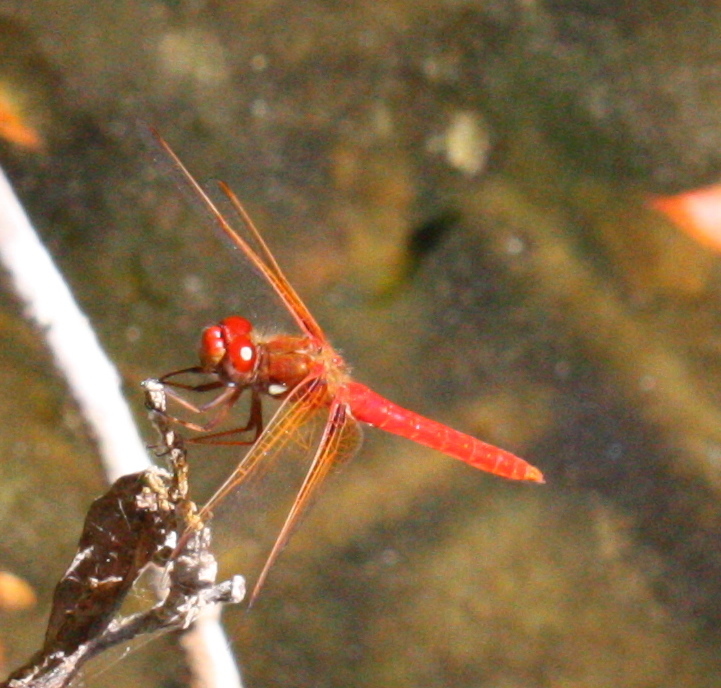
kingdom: Animalia
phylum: Arthropoda
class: Insecta
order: Odonata
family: Libellulidae
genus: Sympetrum
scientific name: Sympetrum illotum
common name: Cardinal meadowhawk
